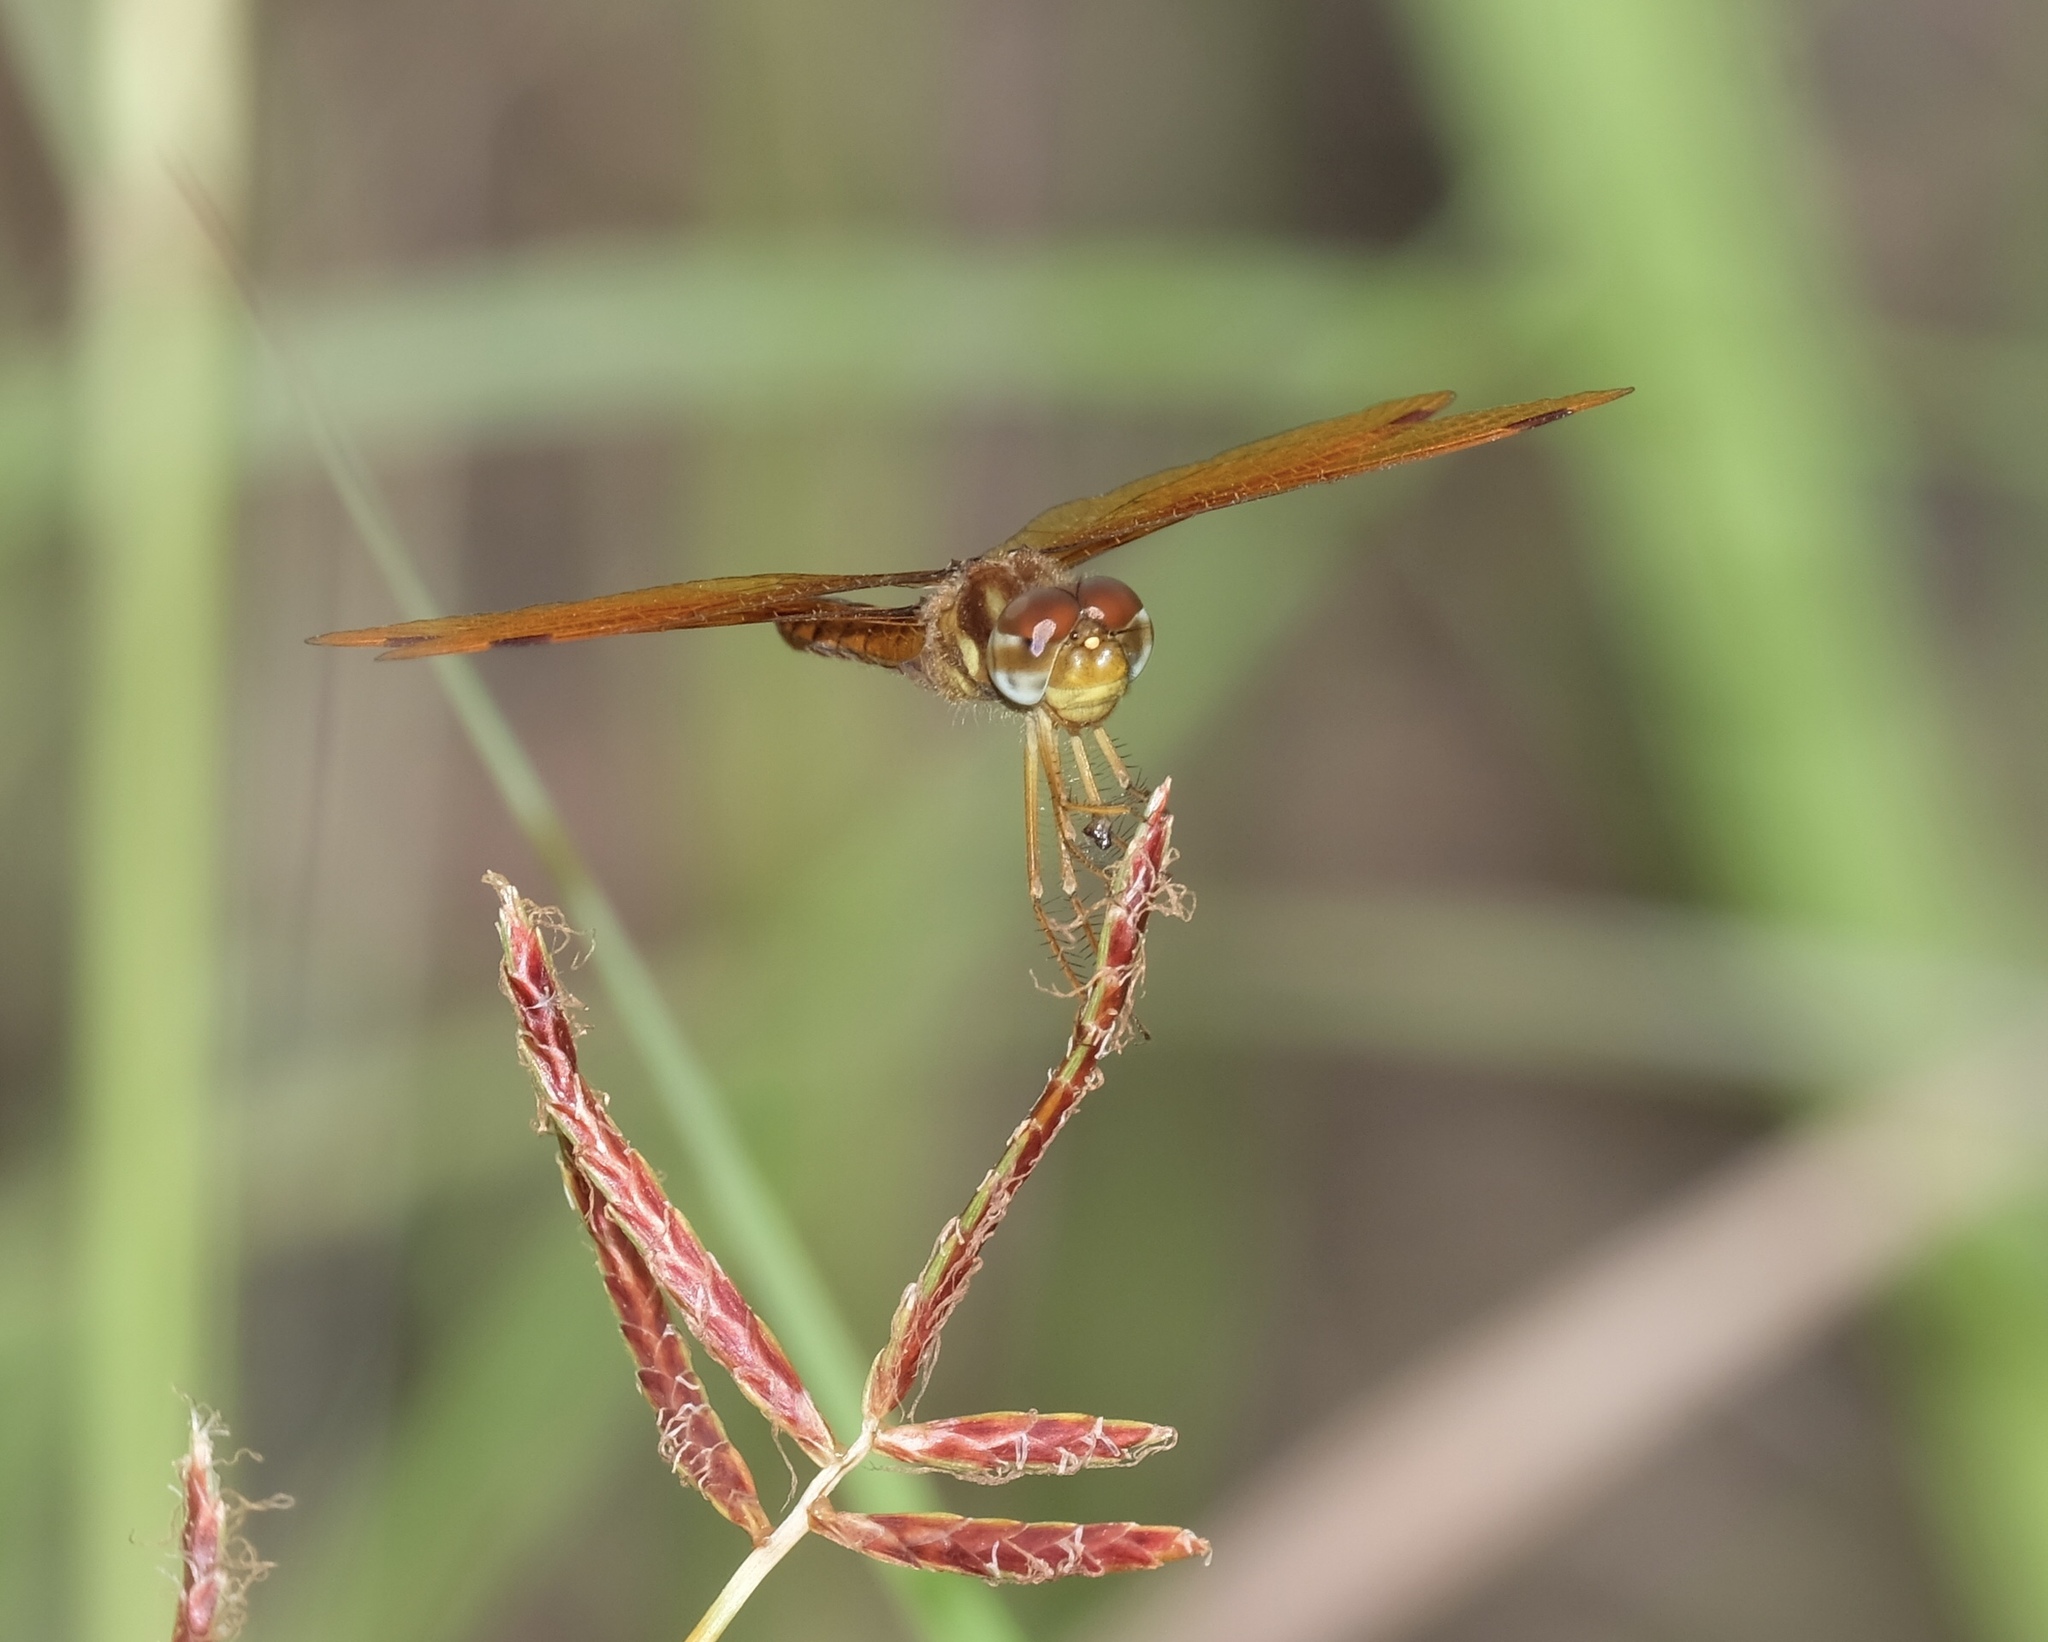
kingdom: Animalia
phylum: Arthropoda
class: Insecta
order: Odonata
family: Libellulidae
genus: Perithemis
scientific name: Perithemis tenera
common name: Eastern amberwing
